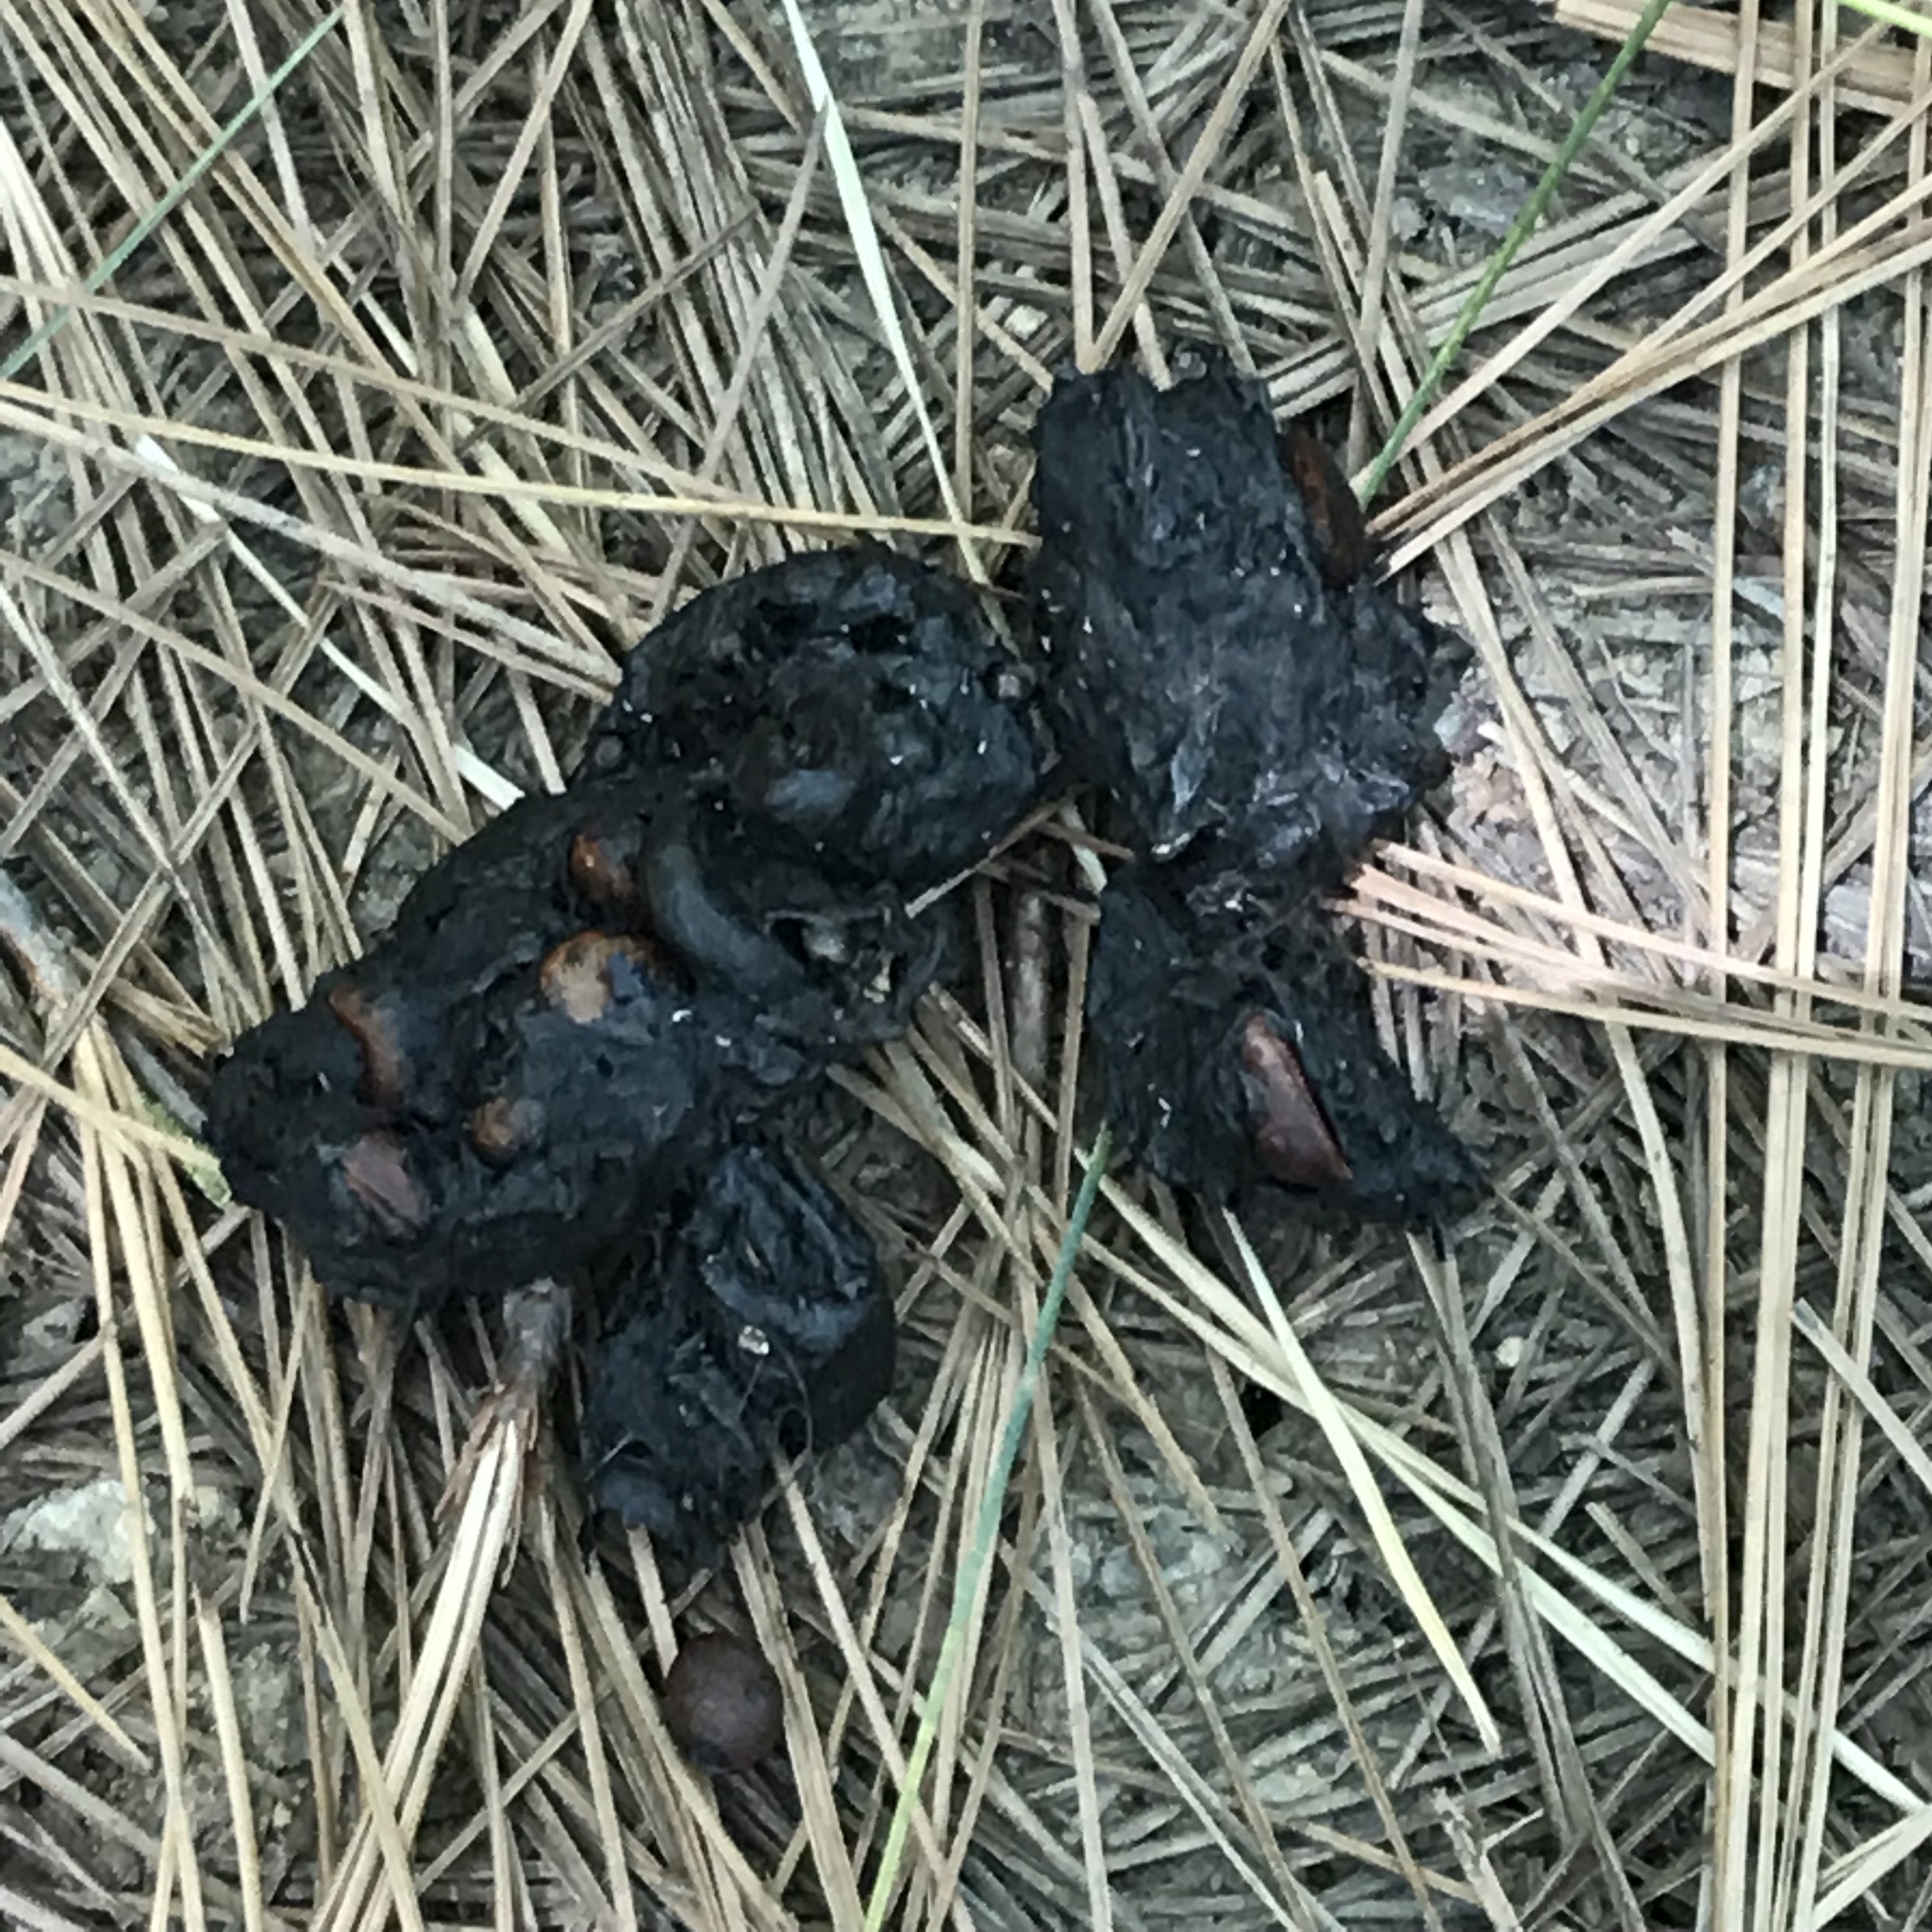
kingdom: Animalia
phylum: Chordata
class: Mammalia
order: Carnivora
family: Ursidae
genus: Ursus
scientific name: Ursus americanus
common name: American black bear
